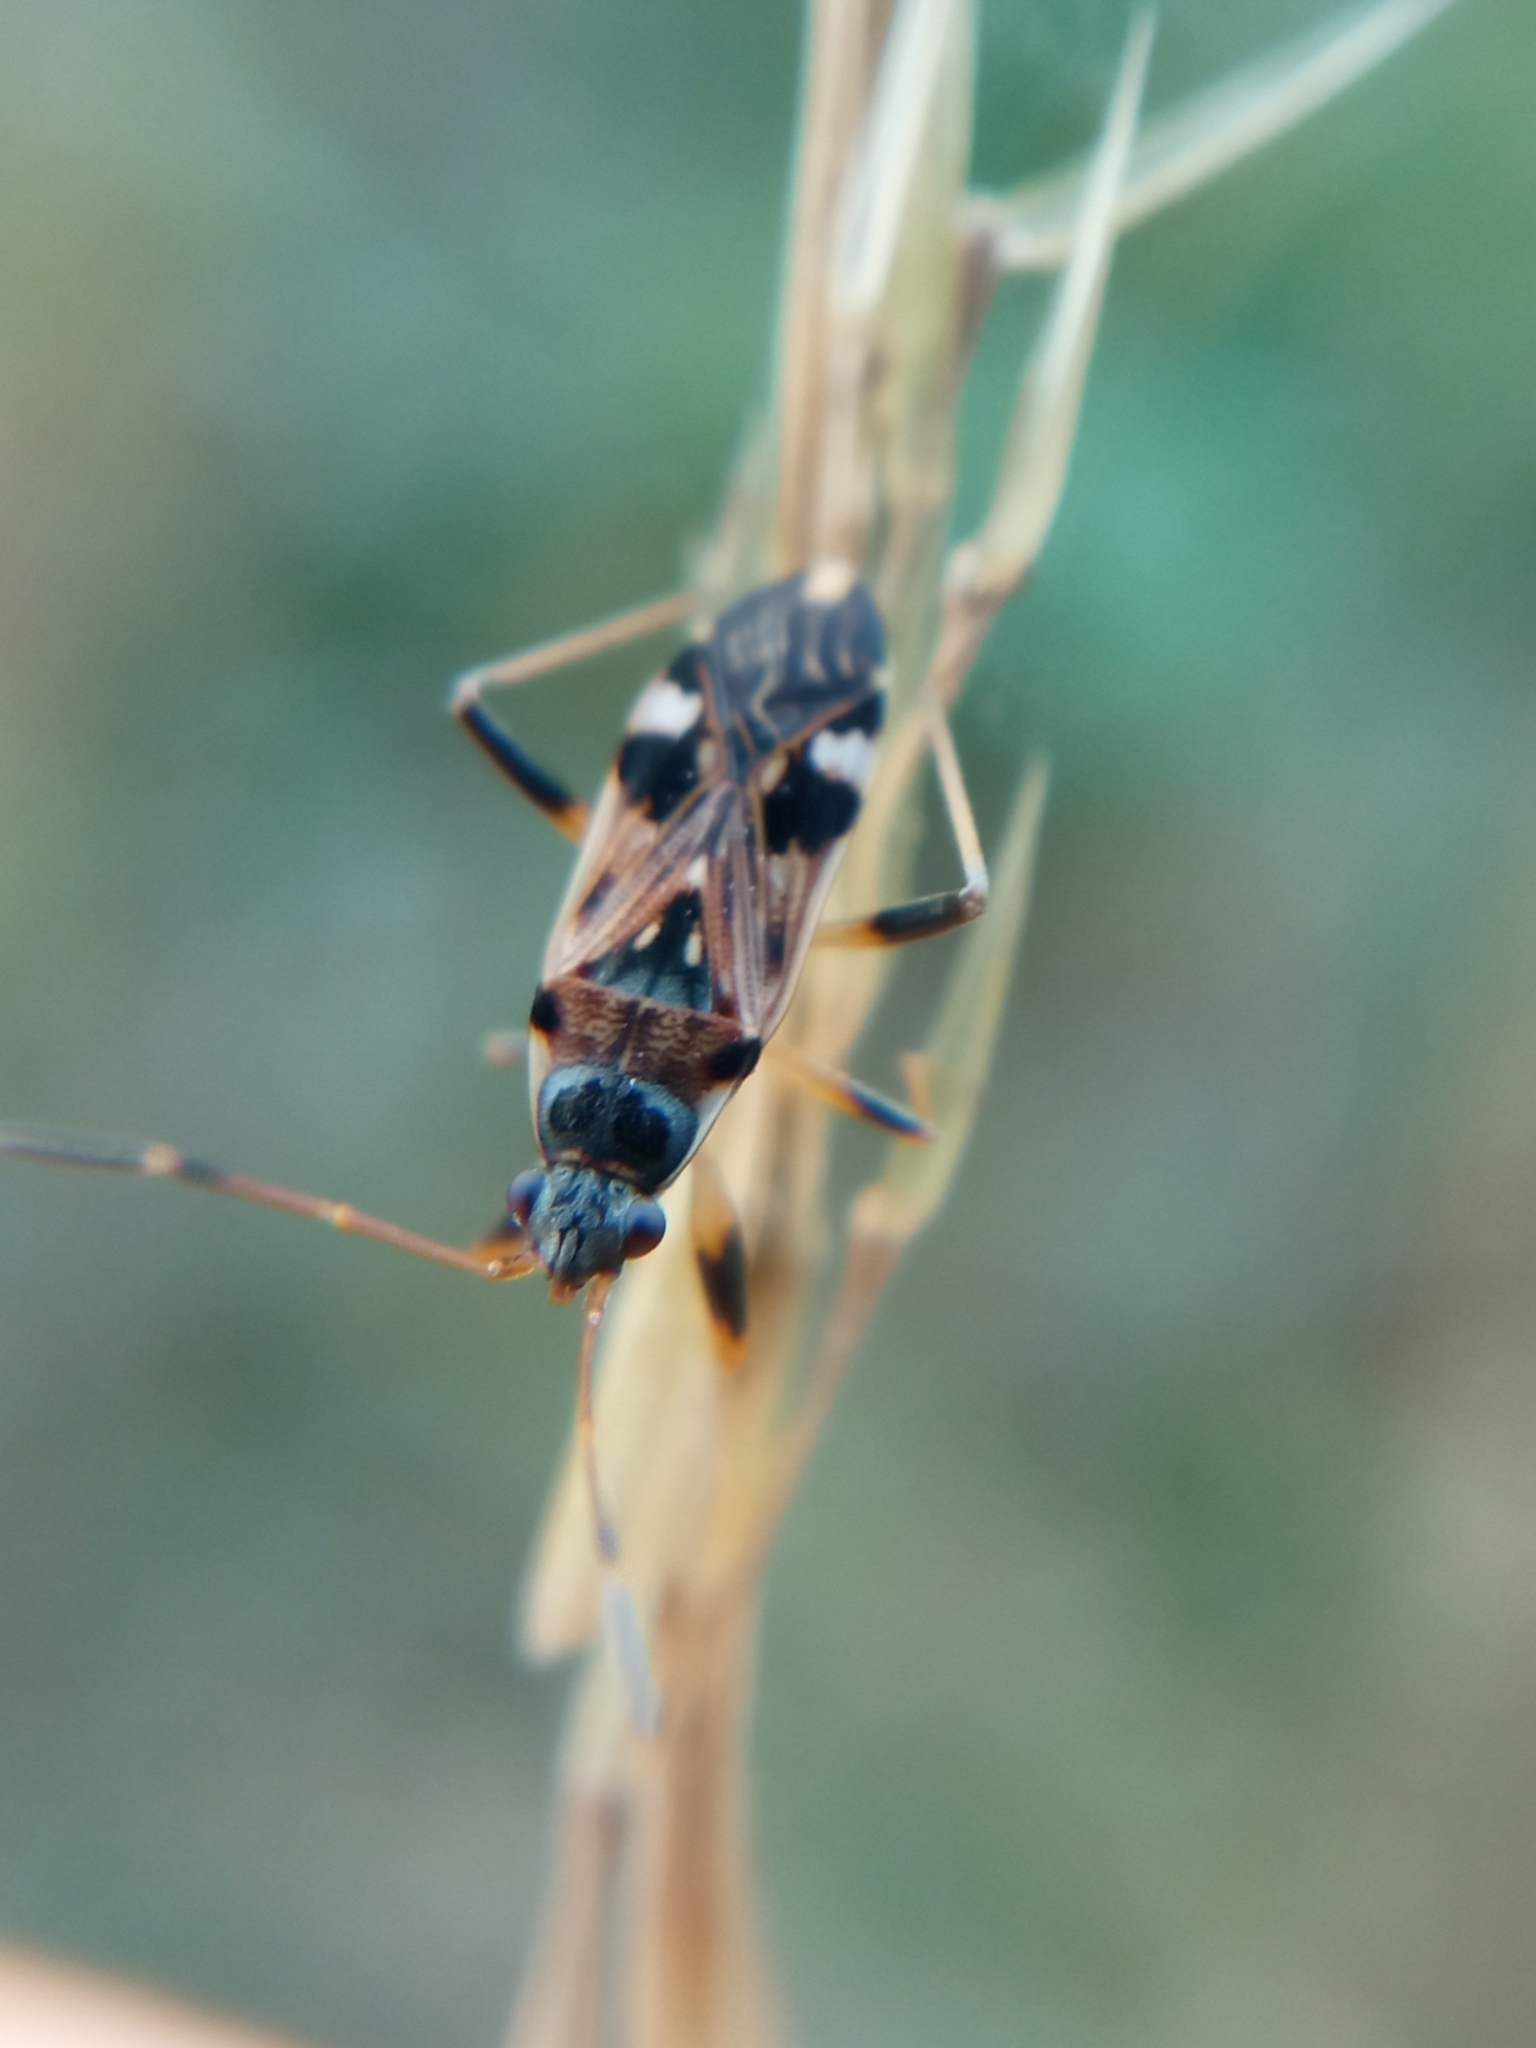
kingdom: Animalia
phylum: Arthropoda
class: Insecta
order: Hemiptera
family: Rhyparochromidae
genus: Beosus
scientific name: Beosus maritimus
